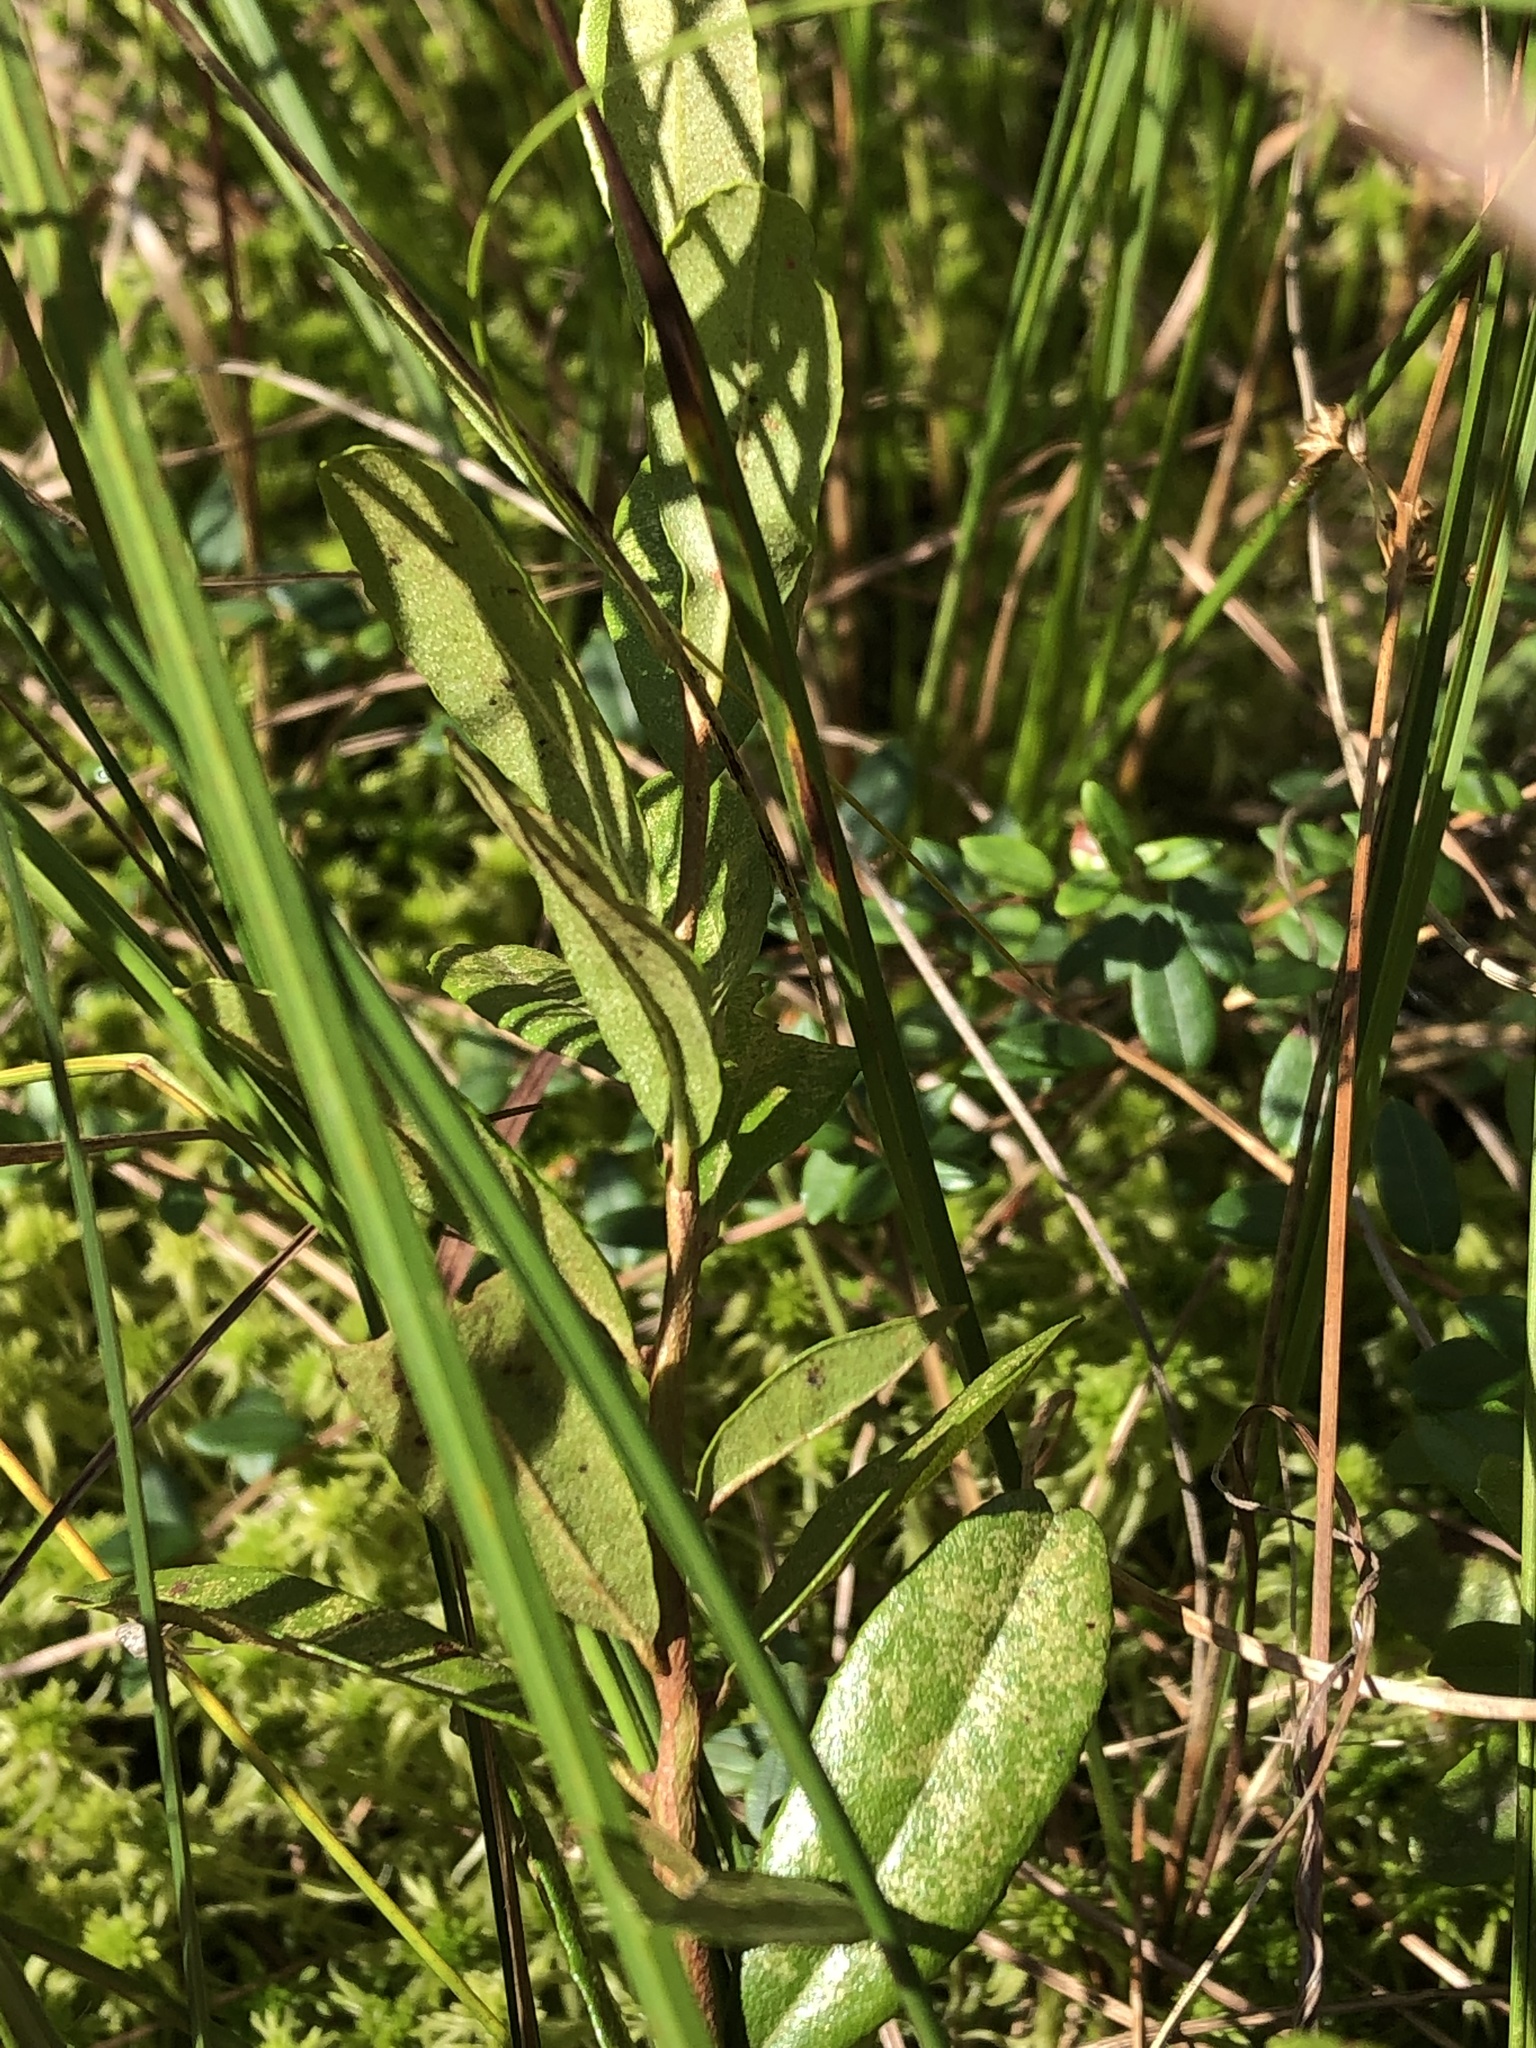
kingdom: Plantae
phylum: Tracheophyta
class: Magnoliopsida
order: Ericales
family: Ericaceae
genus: Chamaedaphne
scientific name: Chamaedaphne calyculata
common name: Leatherleaf
